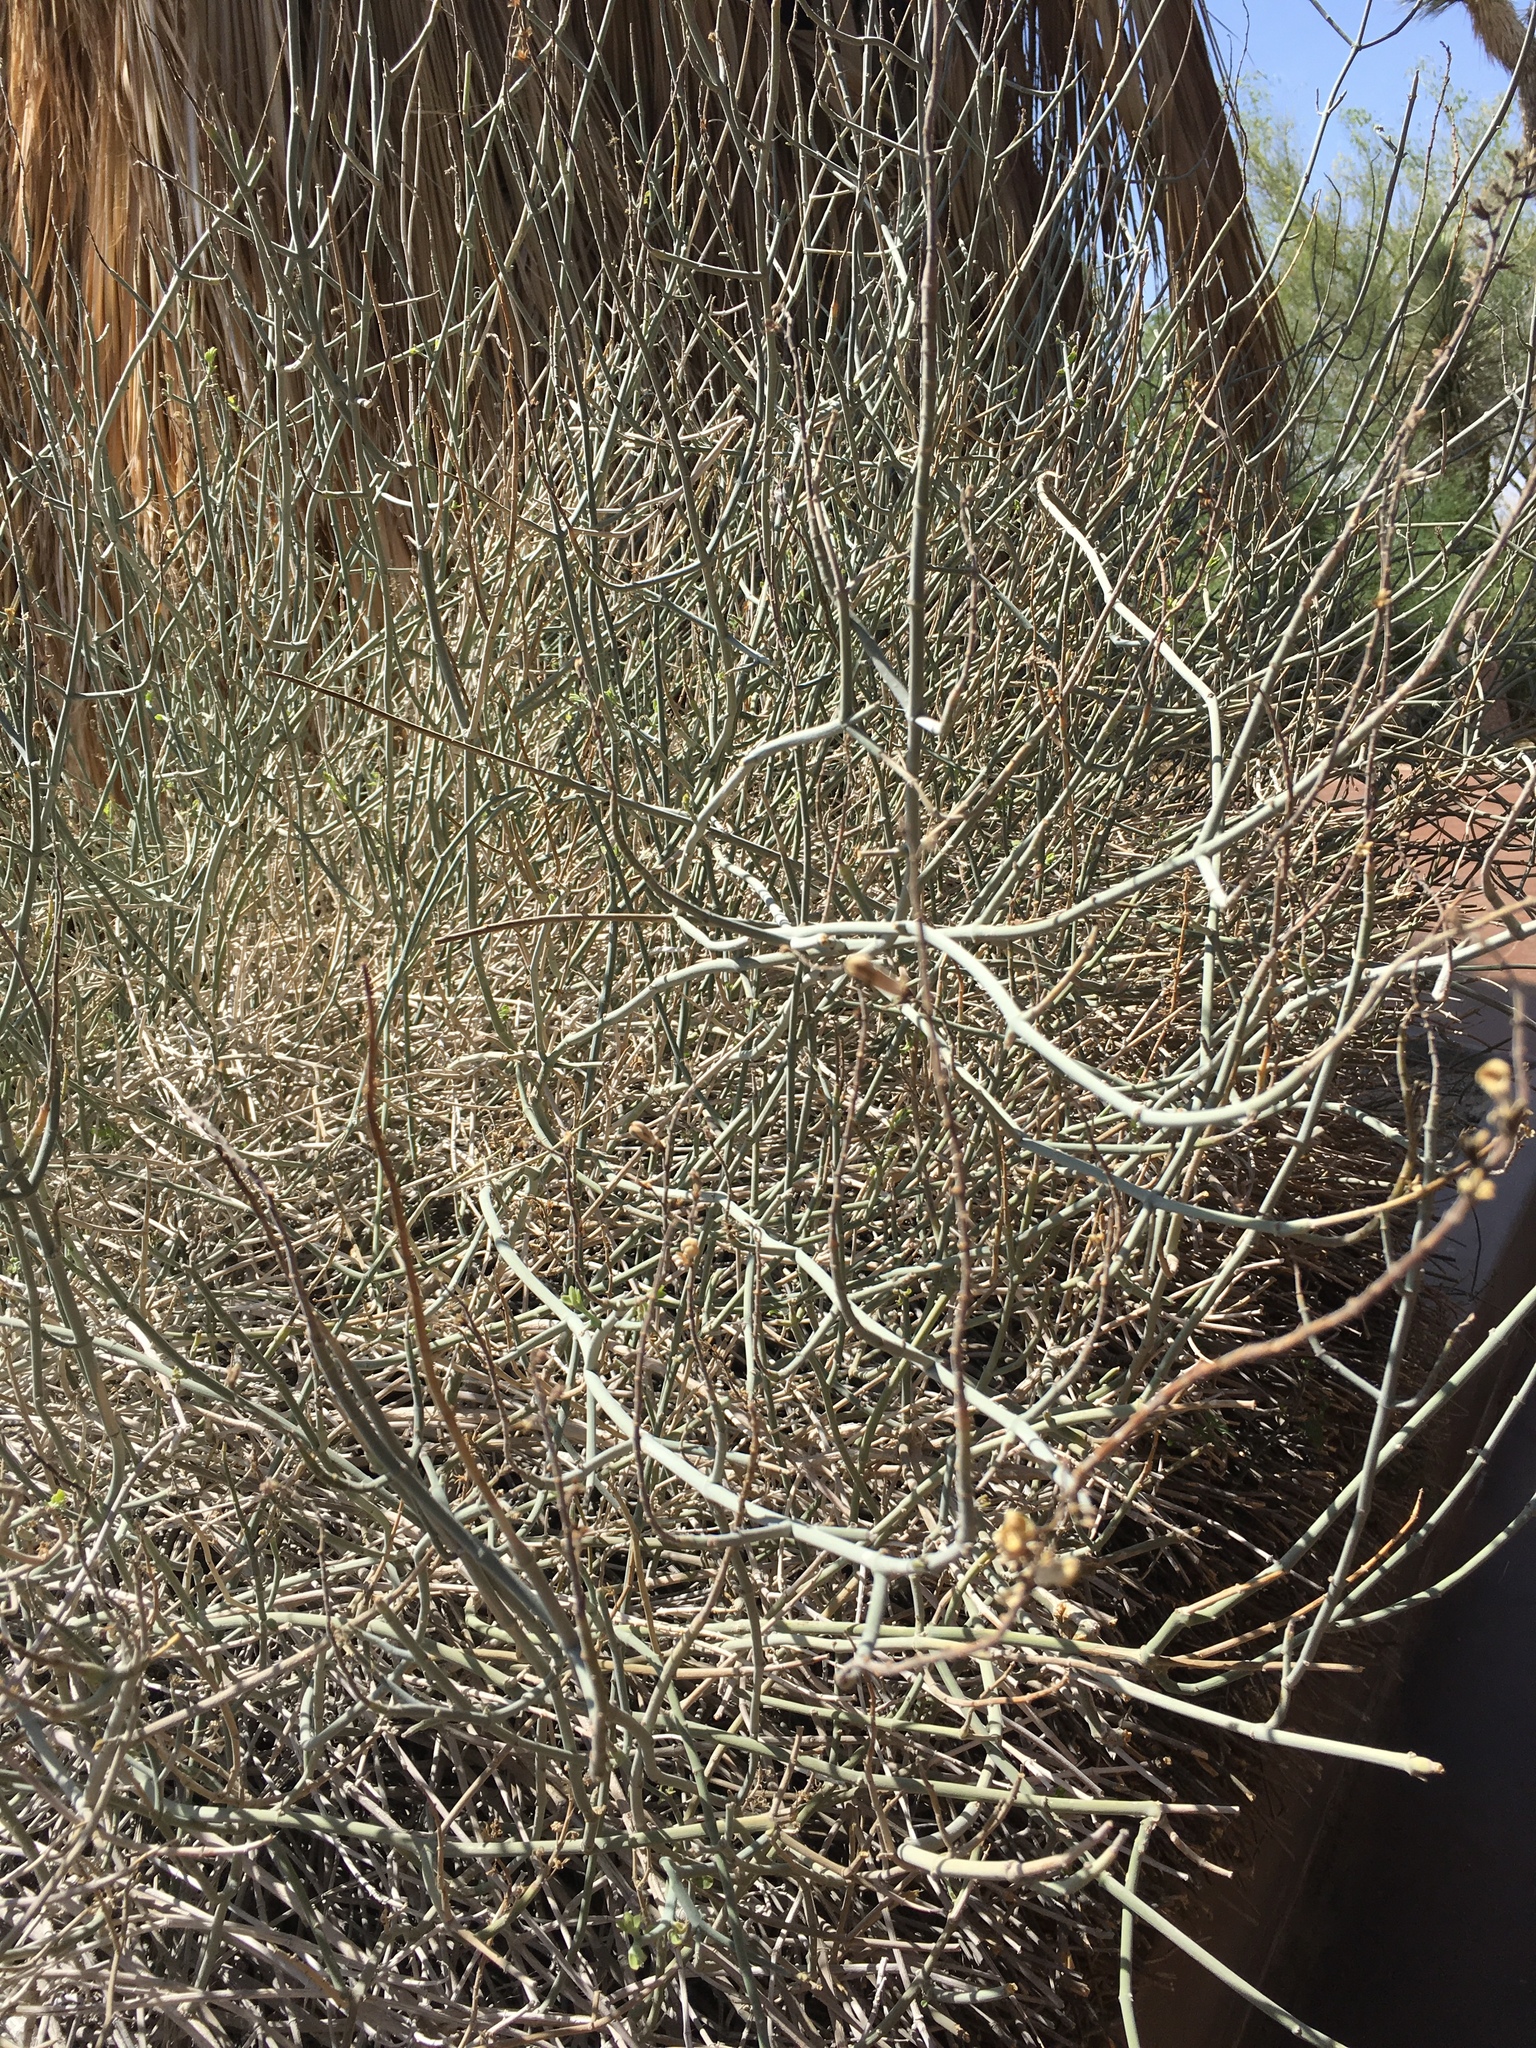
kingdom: Plantae
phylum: Tracheophyta
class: Magnoliopsida
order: Lamiales
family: Acanthaceae
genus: Justicia
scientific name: Justicia californica
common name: Chuparosa-honeysuckle
